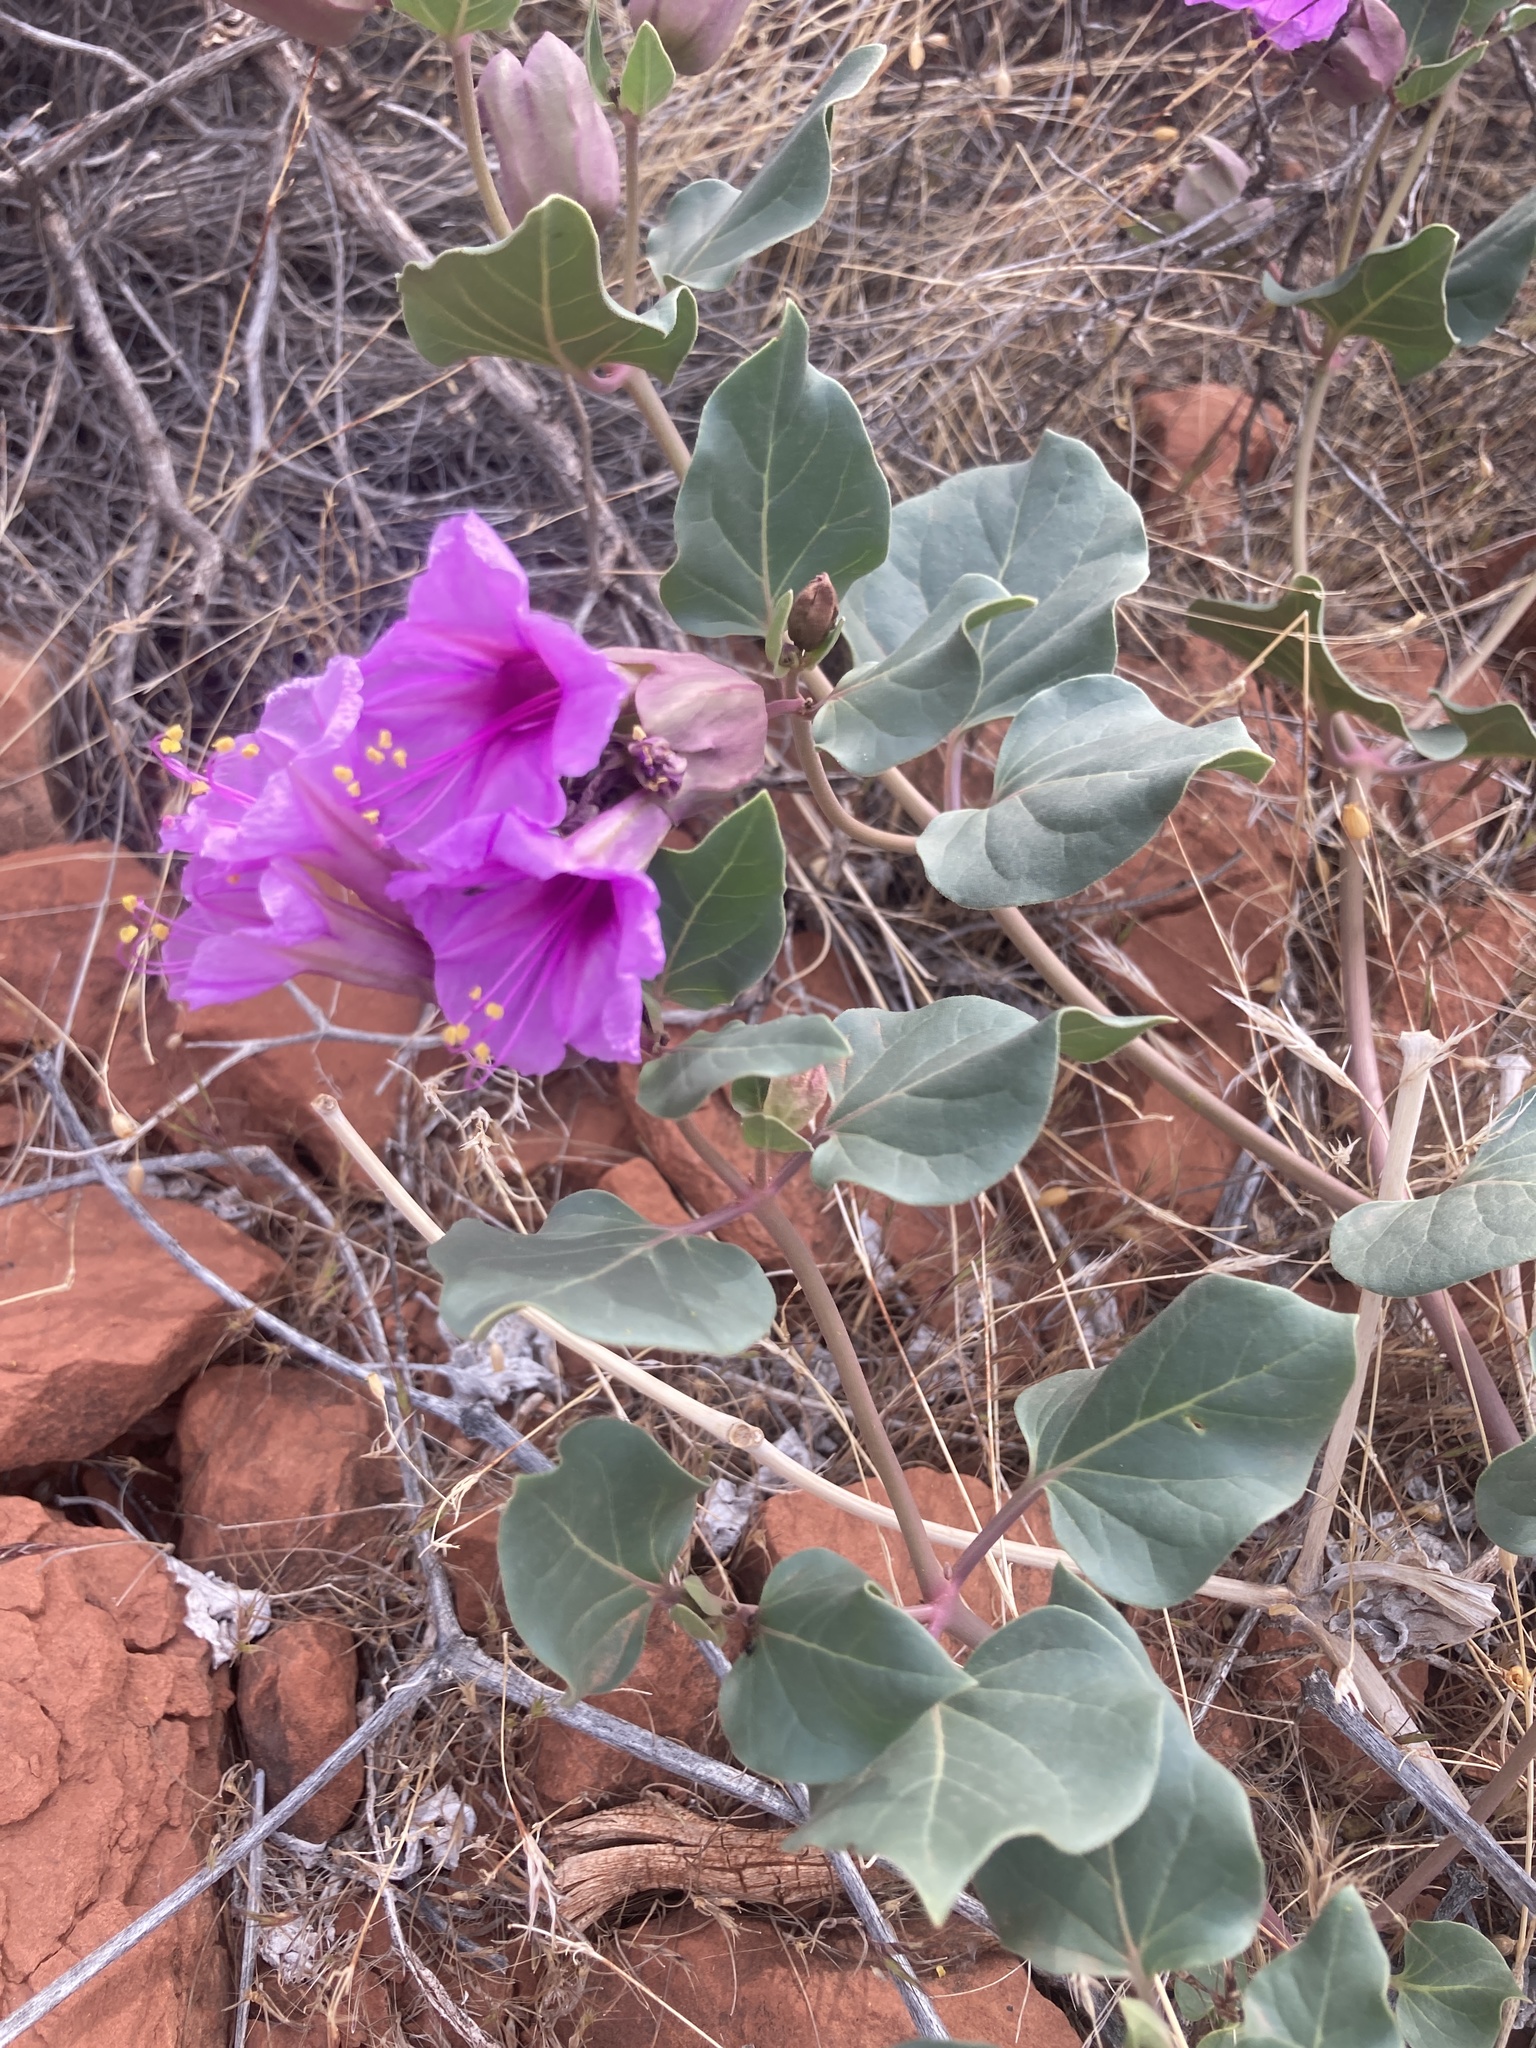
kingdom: Plantae
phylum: Tracheophyta
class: Magnoliopsida
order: Caryophyllales
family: Nyctaginaceae
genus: Mirabilis
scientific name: Mirabilis multiflora
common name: Froebel's four-o'clock
